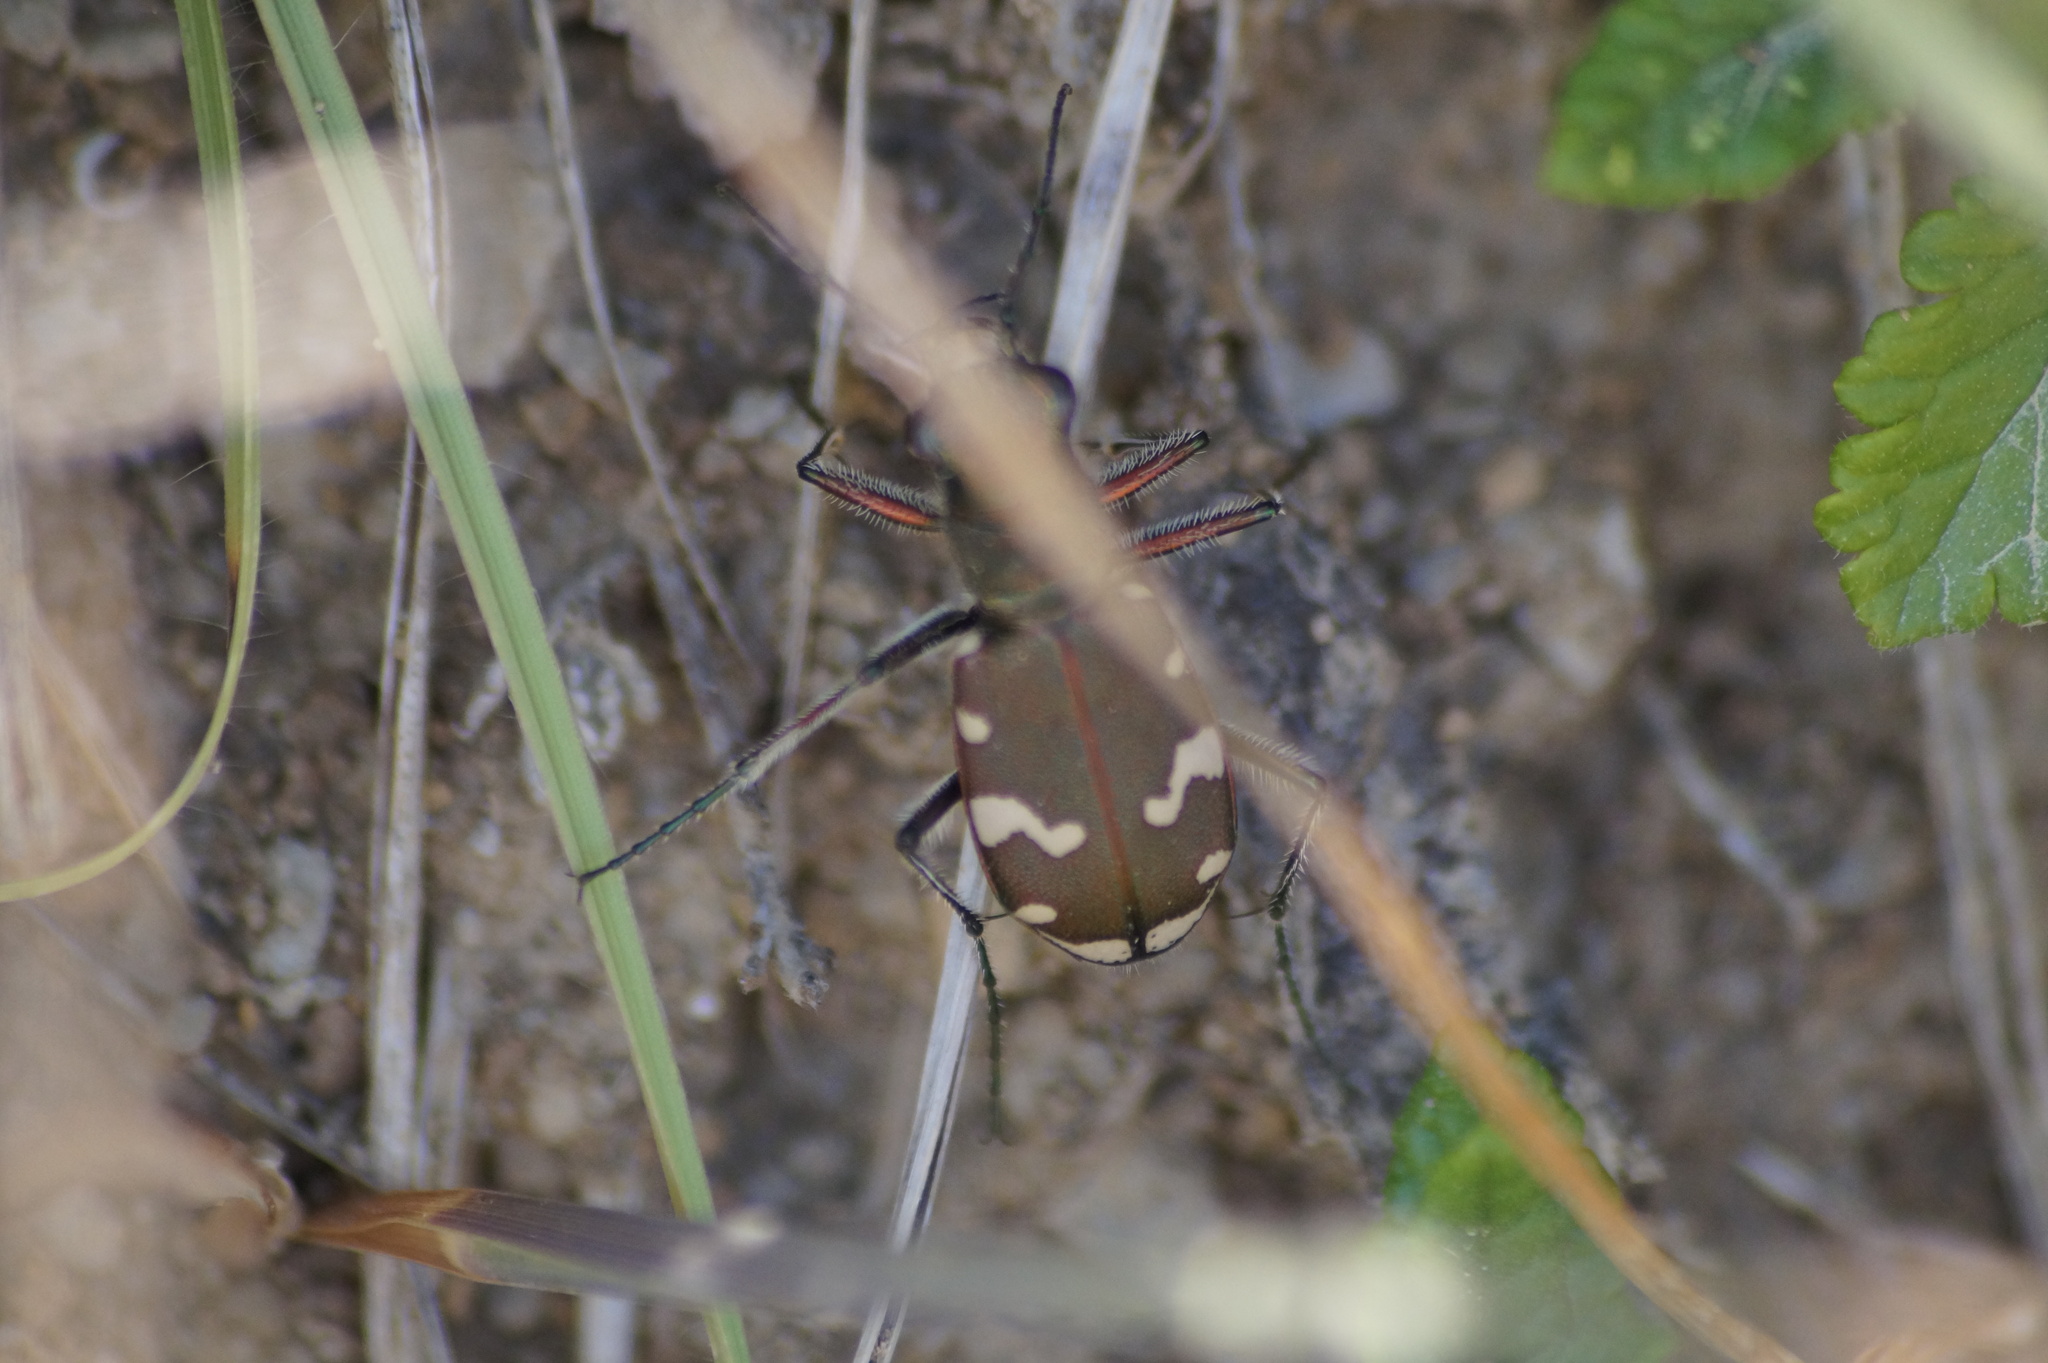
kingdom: Animalia
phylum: Arthropoda
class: Insecta
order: Coleoptera
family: Carabidae
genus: Cicindela
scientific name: Cicindela sylvicola
